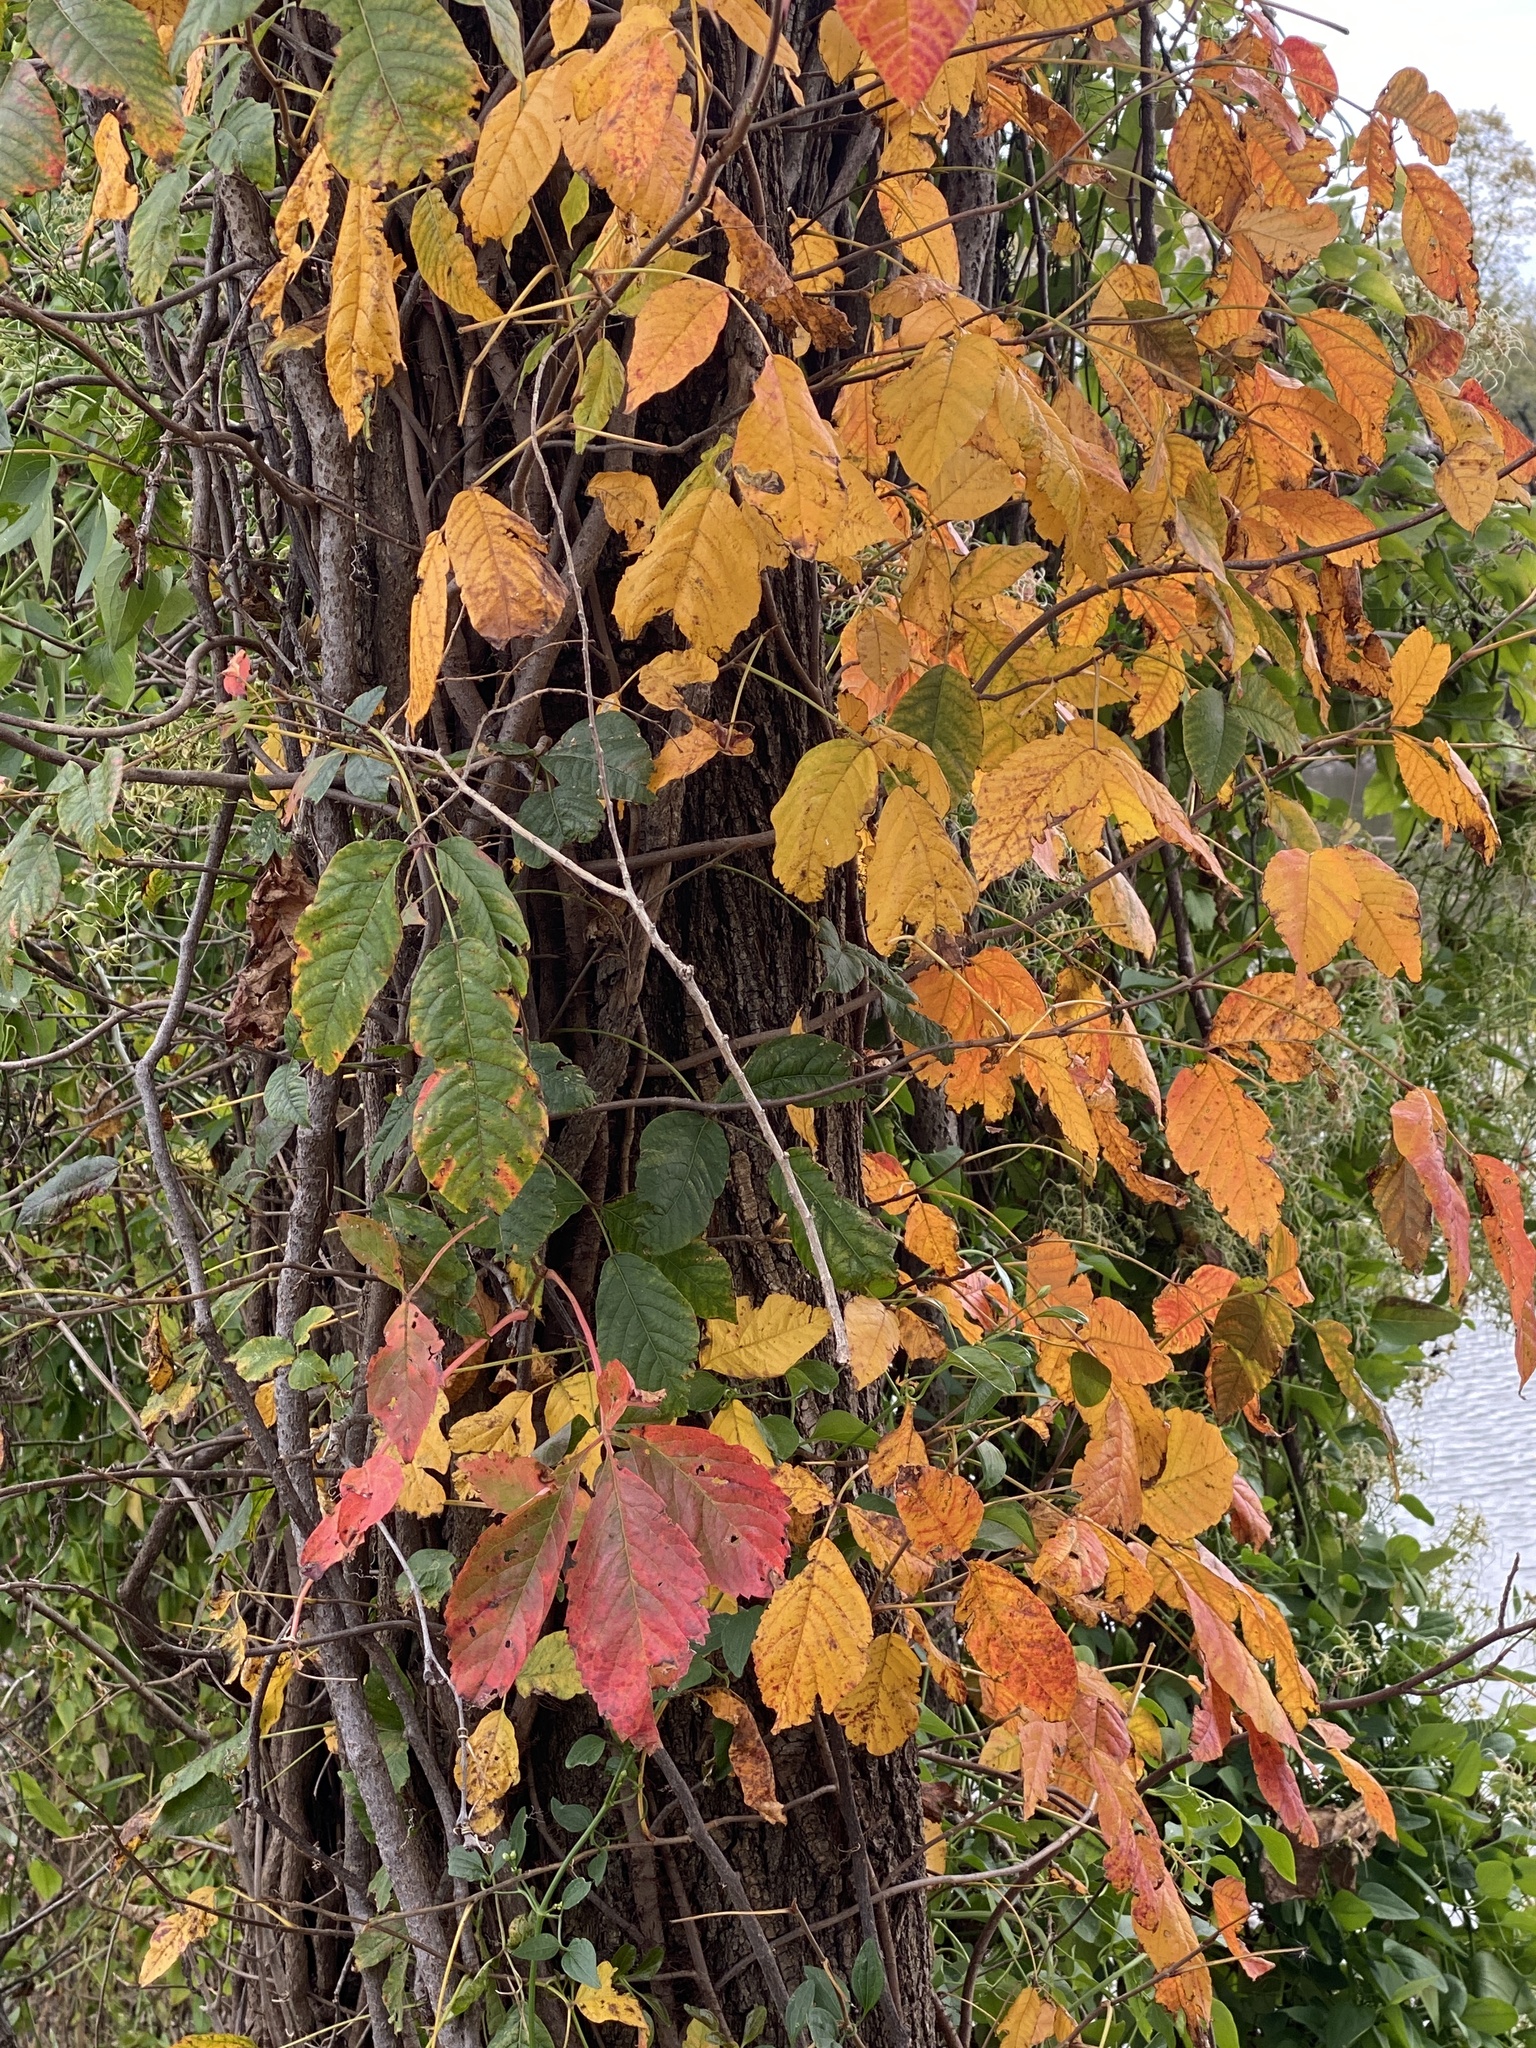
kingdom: Plantae
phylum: Tracheophyta
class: Magnoliopsida
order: Sapindales
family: Anacardiaceae
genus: Toxicodendron
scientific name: Toxicodendron radicans
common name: Poison ivy
